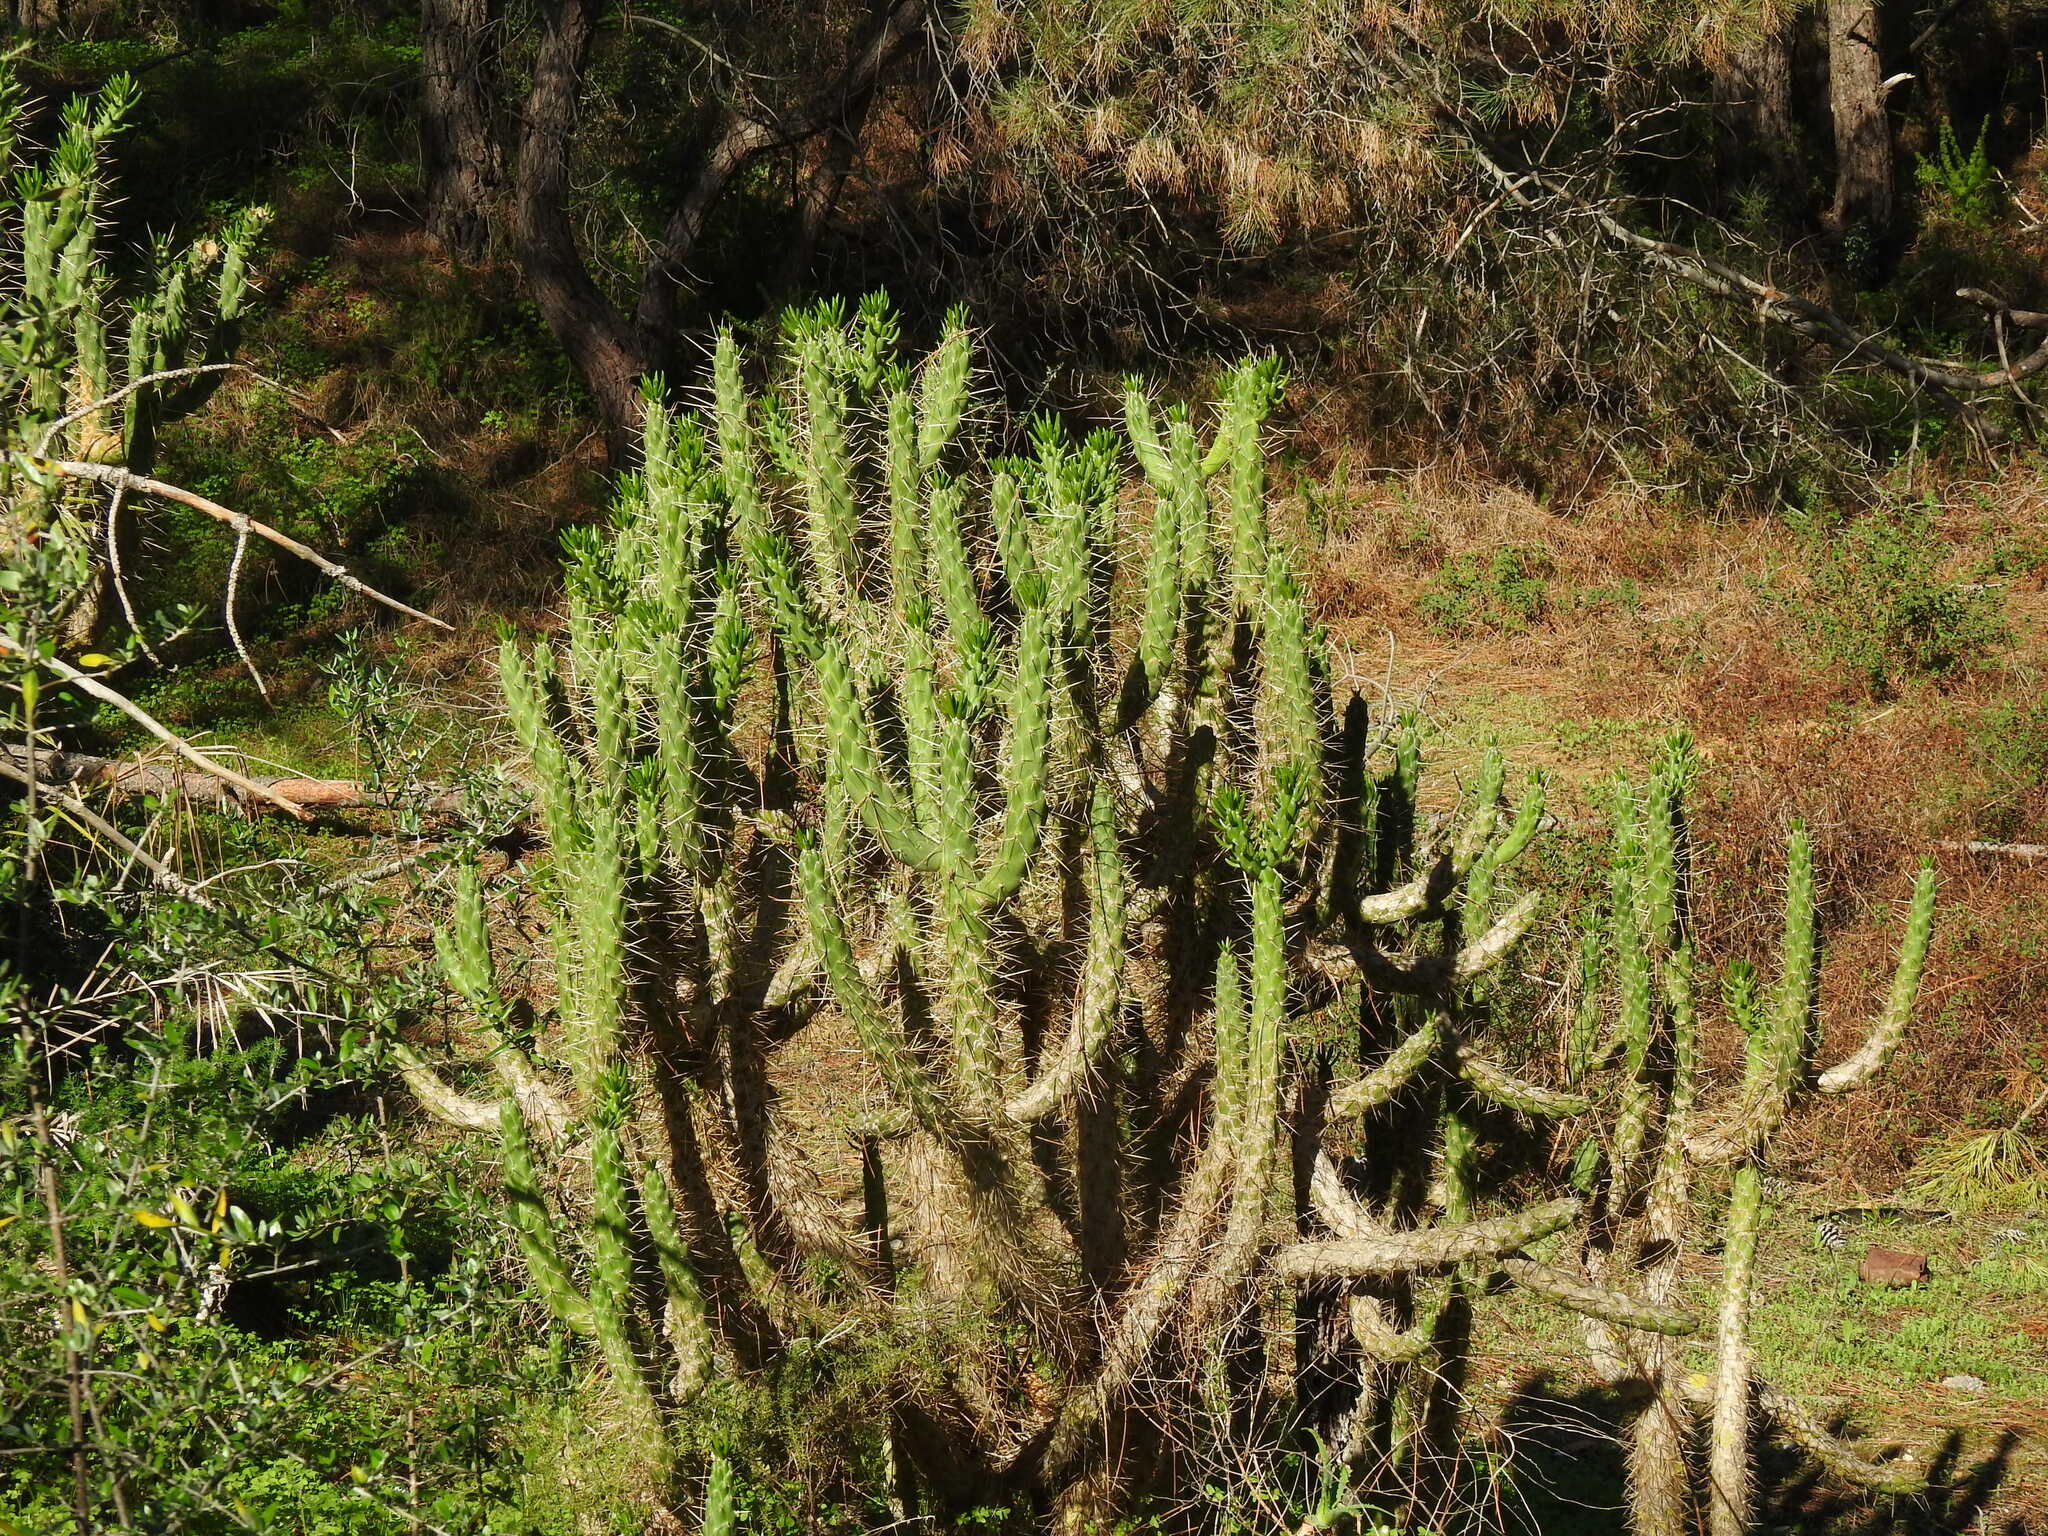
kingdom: Plantae
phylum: Tracheophyta
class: Magnoliopsida
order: Caryophyllales
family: Cactaceae
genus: Austrocylindropuntia
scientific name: Austrocylindropuntia subulata
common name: Eve's needle cactus
